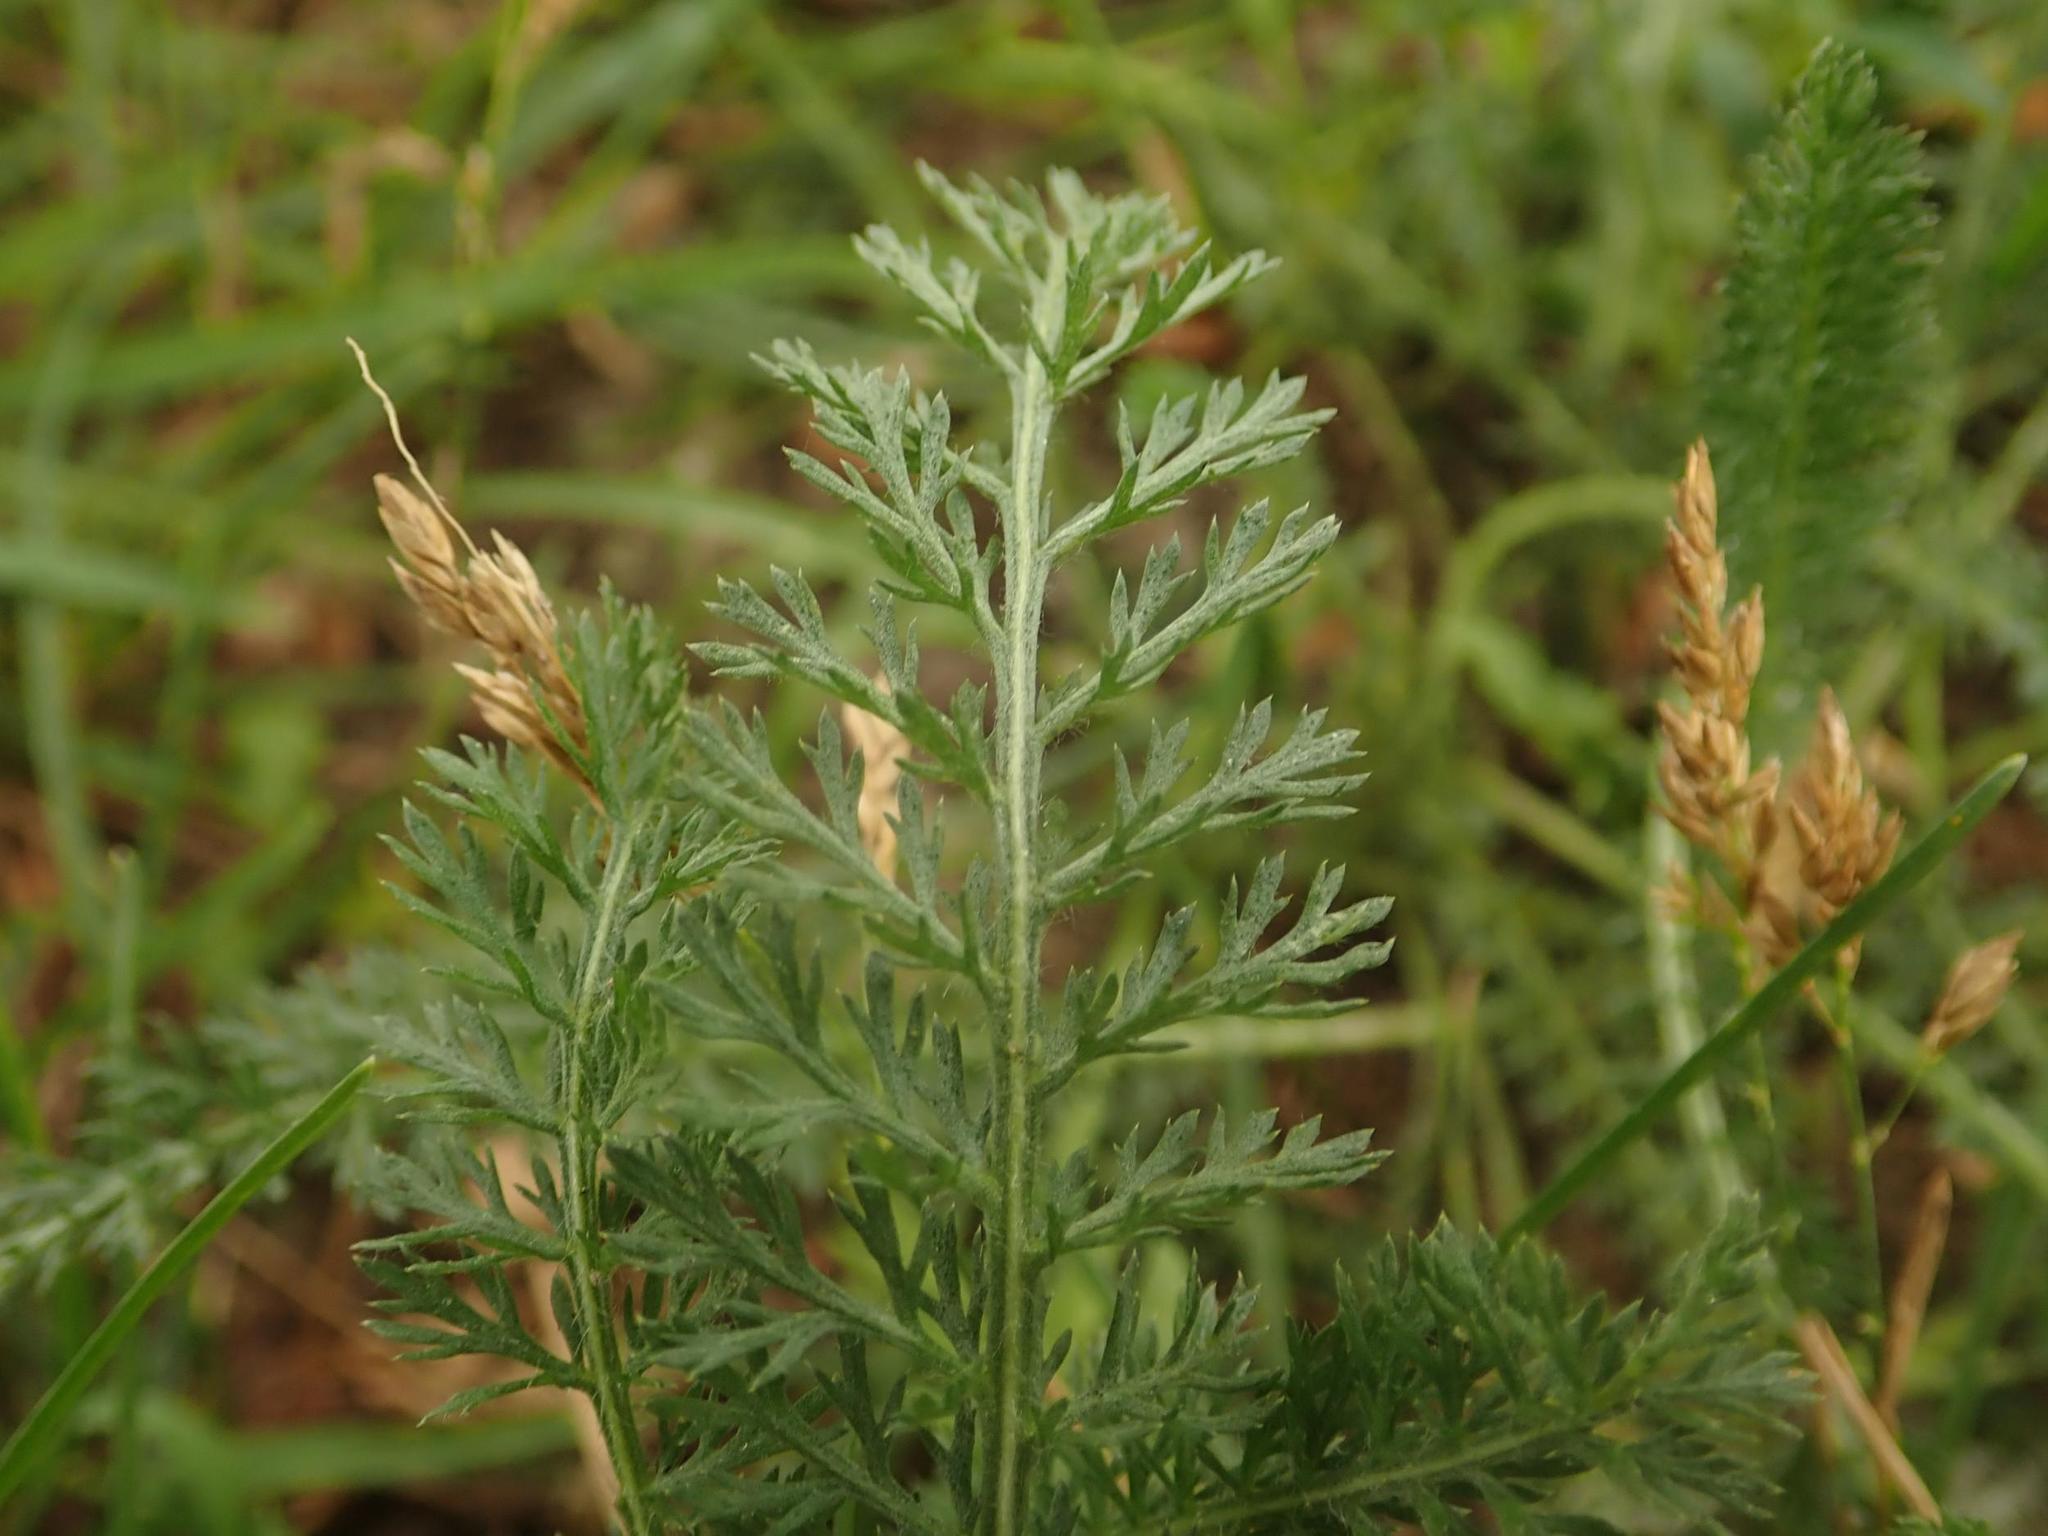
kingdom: Plantae
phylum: Tracheophyta
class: Magnoliopsida
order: Asterales
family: Asteraceae
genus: Achillea
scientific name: Achillea millefolium
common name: Yarrow
